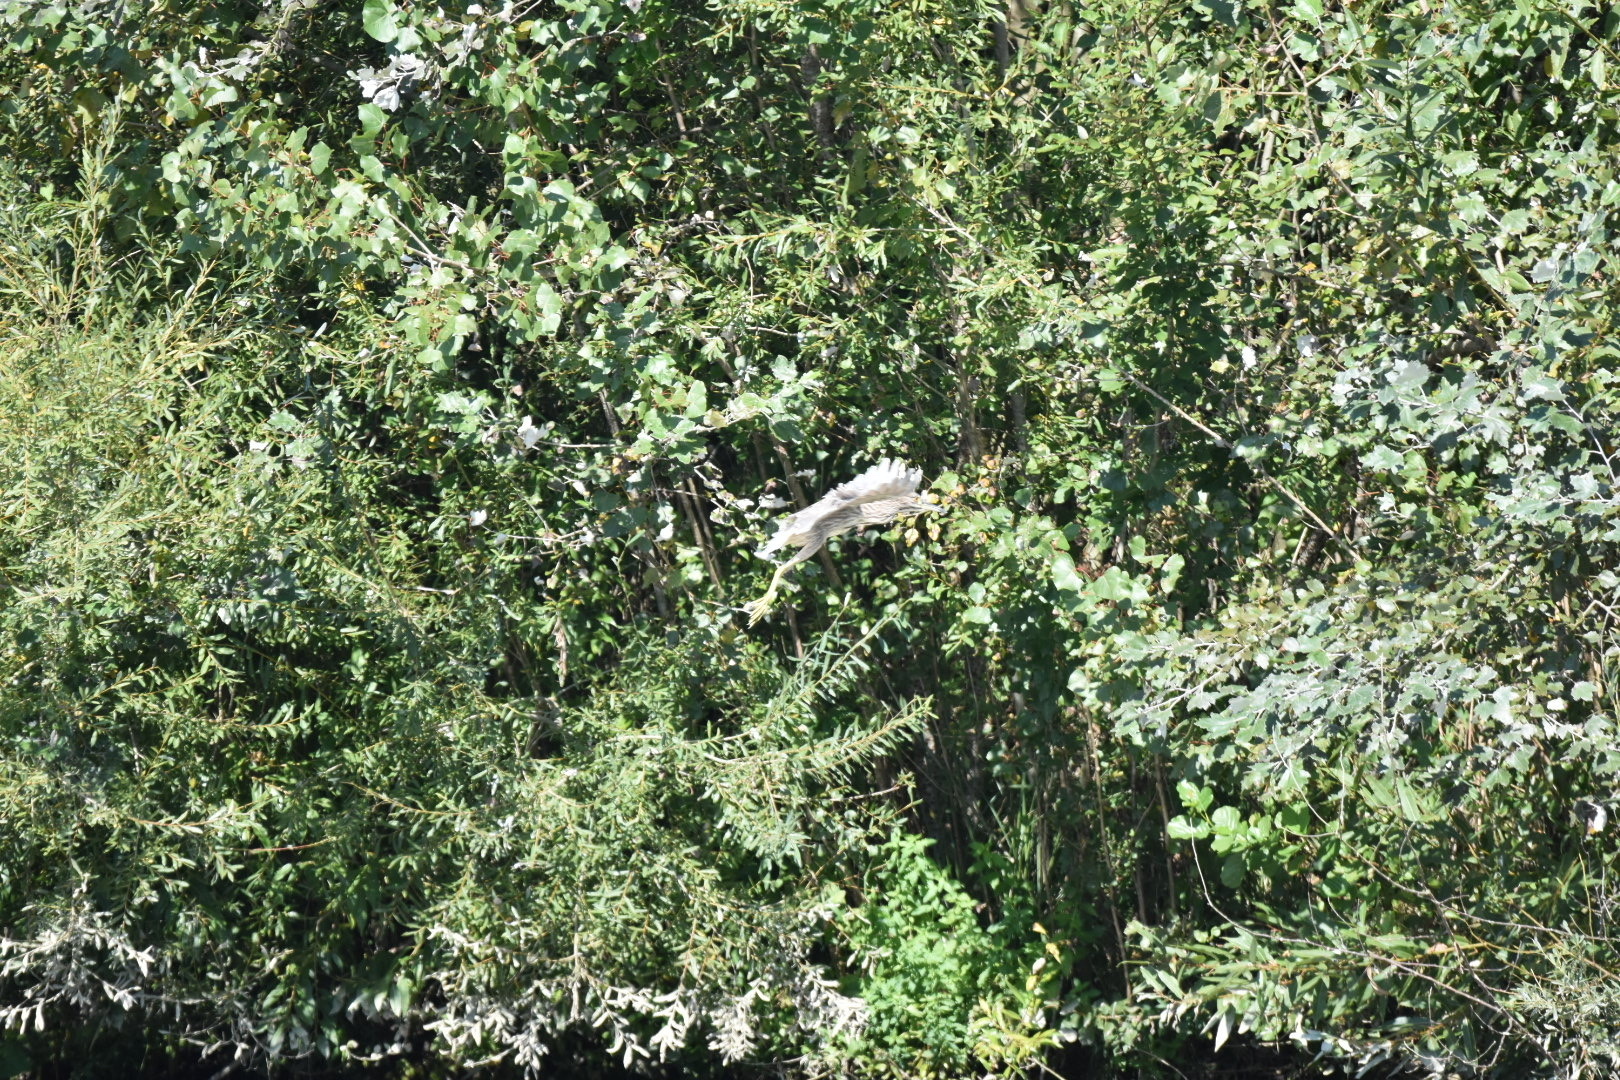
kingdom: Animalia
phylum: Chordata
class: Aves
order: Pelecaniformes
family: Ardeidae
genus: Nycticorax
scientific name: Nycticorax nycticorax
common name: Black-crowned night heron
